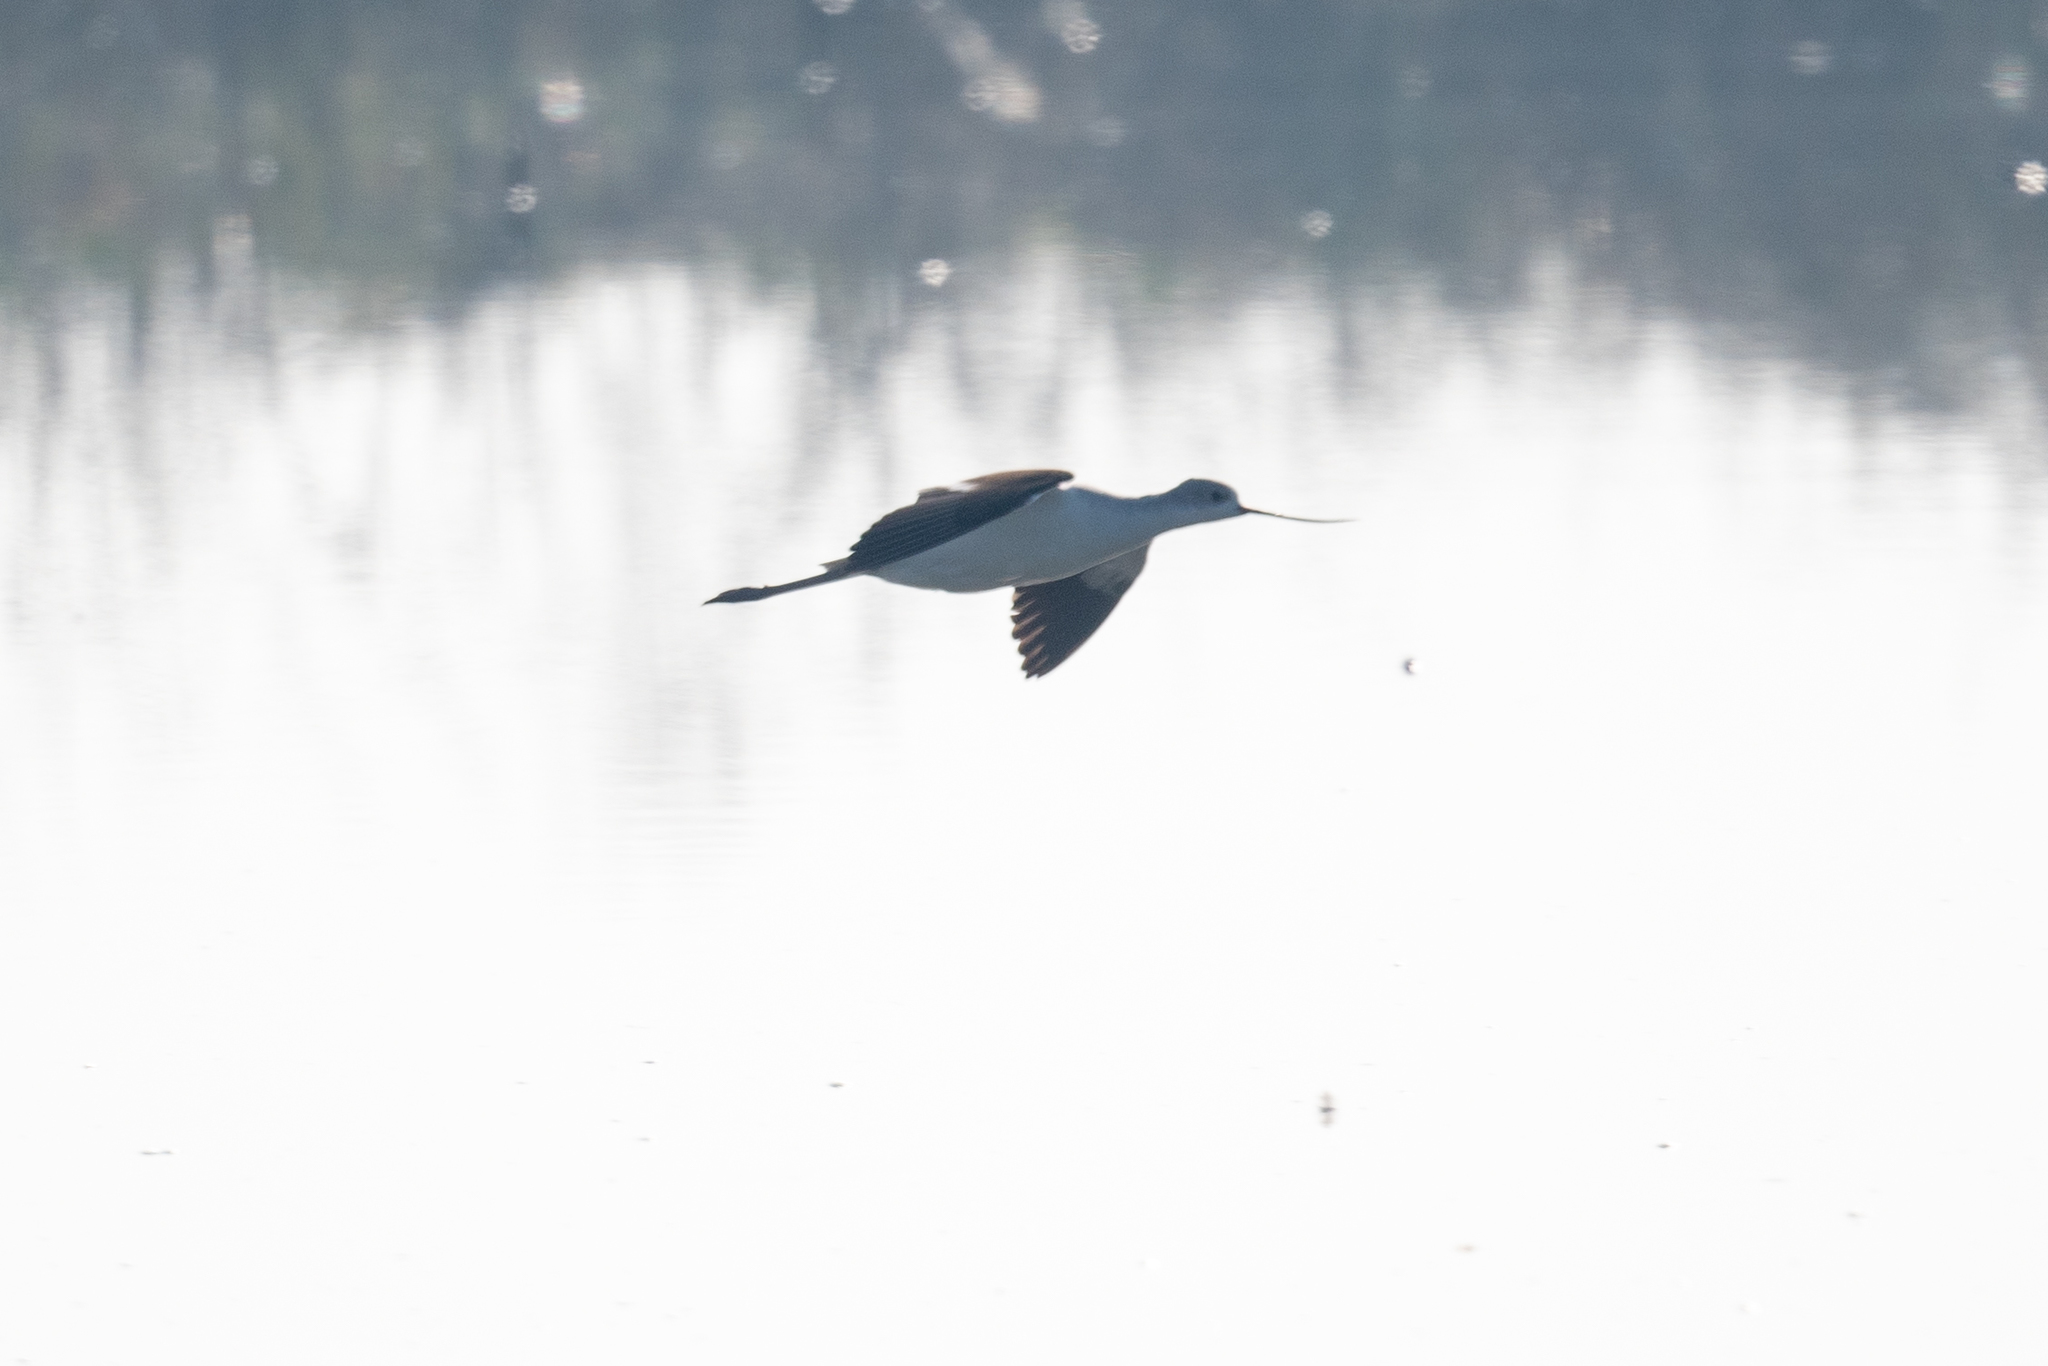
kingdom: Animalia
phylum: Chordata
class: Aves
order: Charadriiformes
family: Recurvirostridae
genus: Recurvirostra
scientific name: Recurvirostra americana
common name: American avocet
